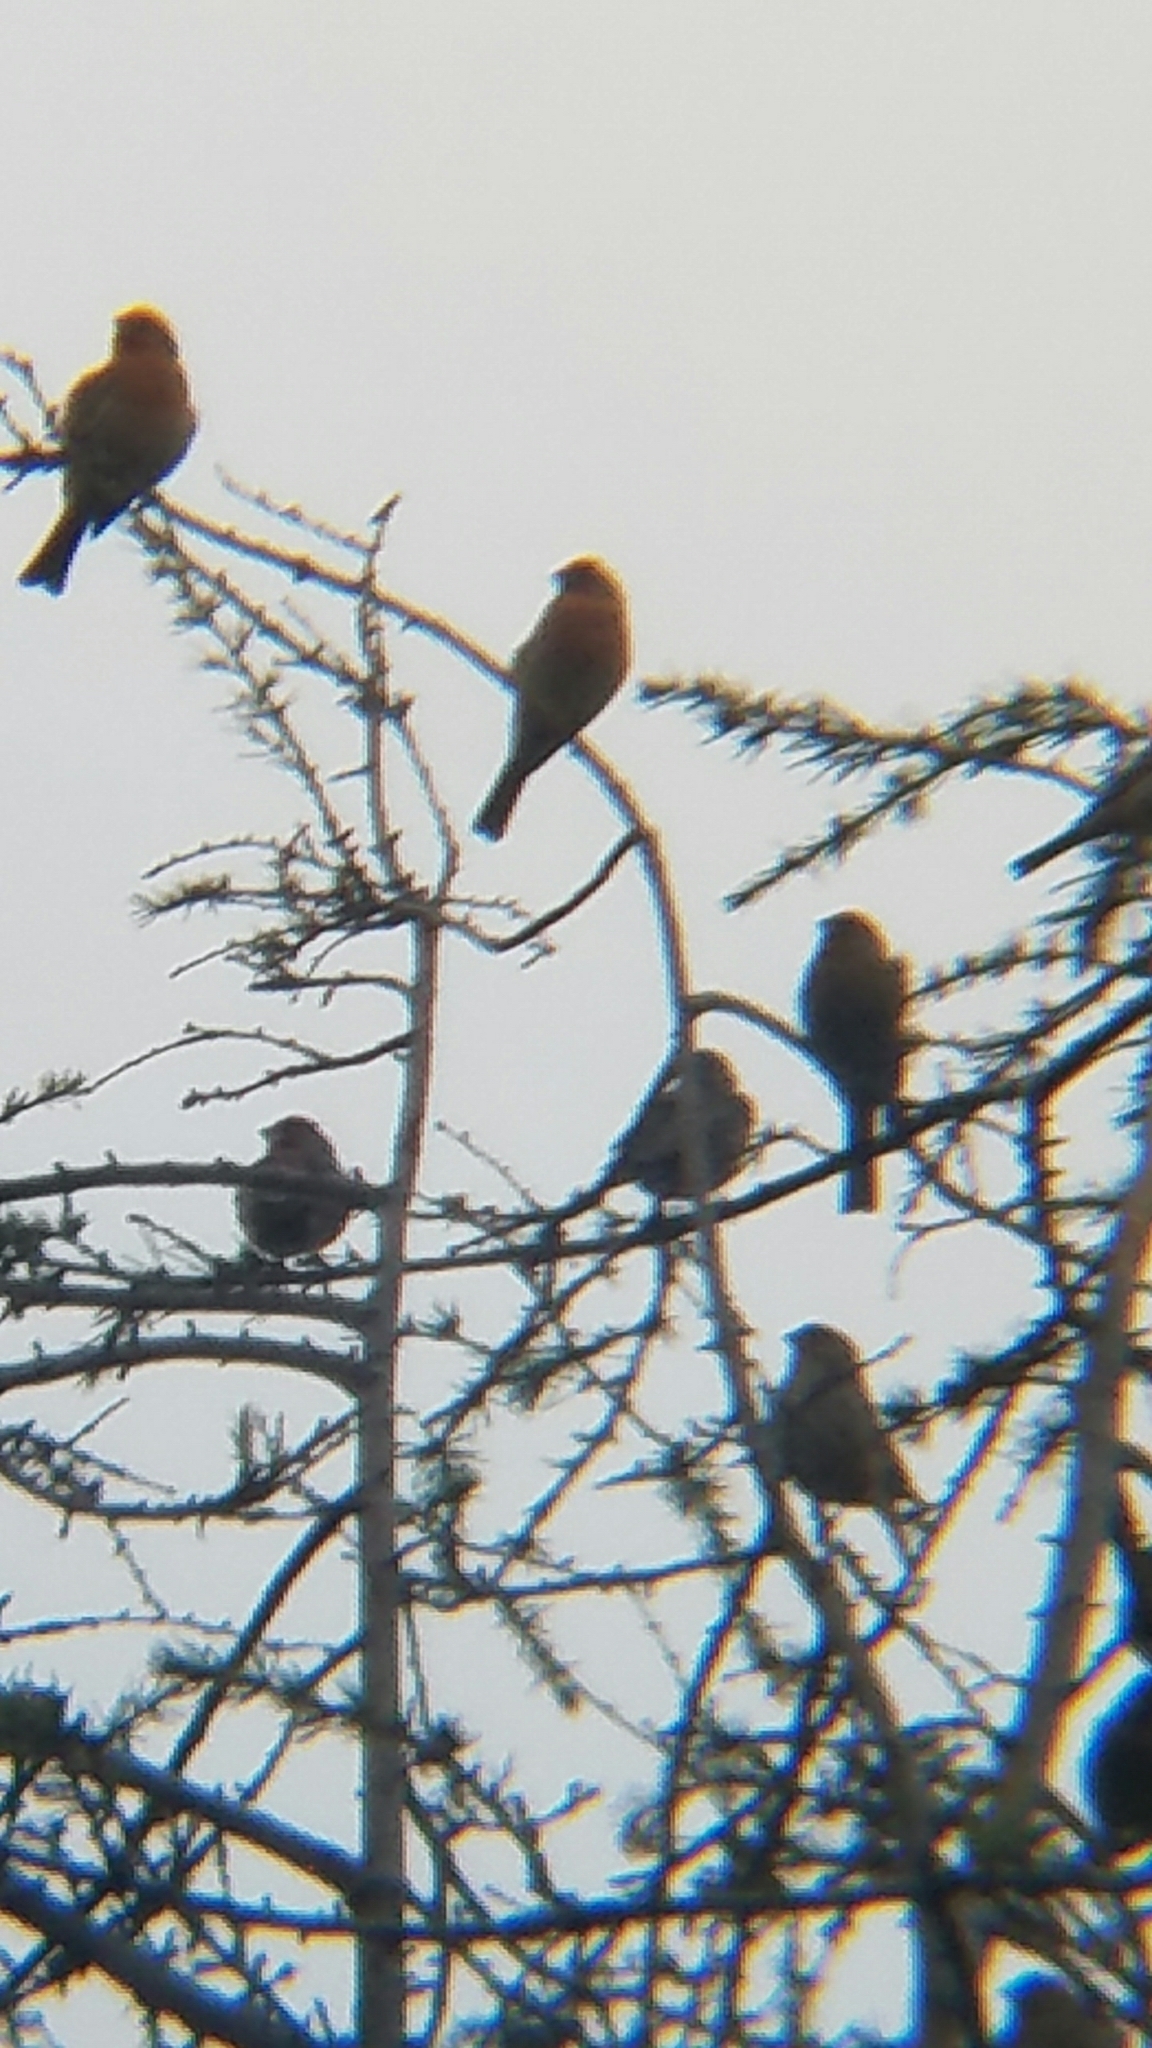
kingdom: Animalia
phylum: Chordata
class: Aves
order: Passeriformes
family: Fringillidae
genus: Haemorhous
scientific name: Haemorhous mexicanus
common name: House finch
